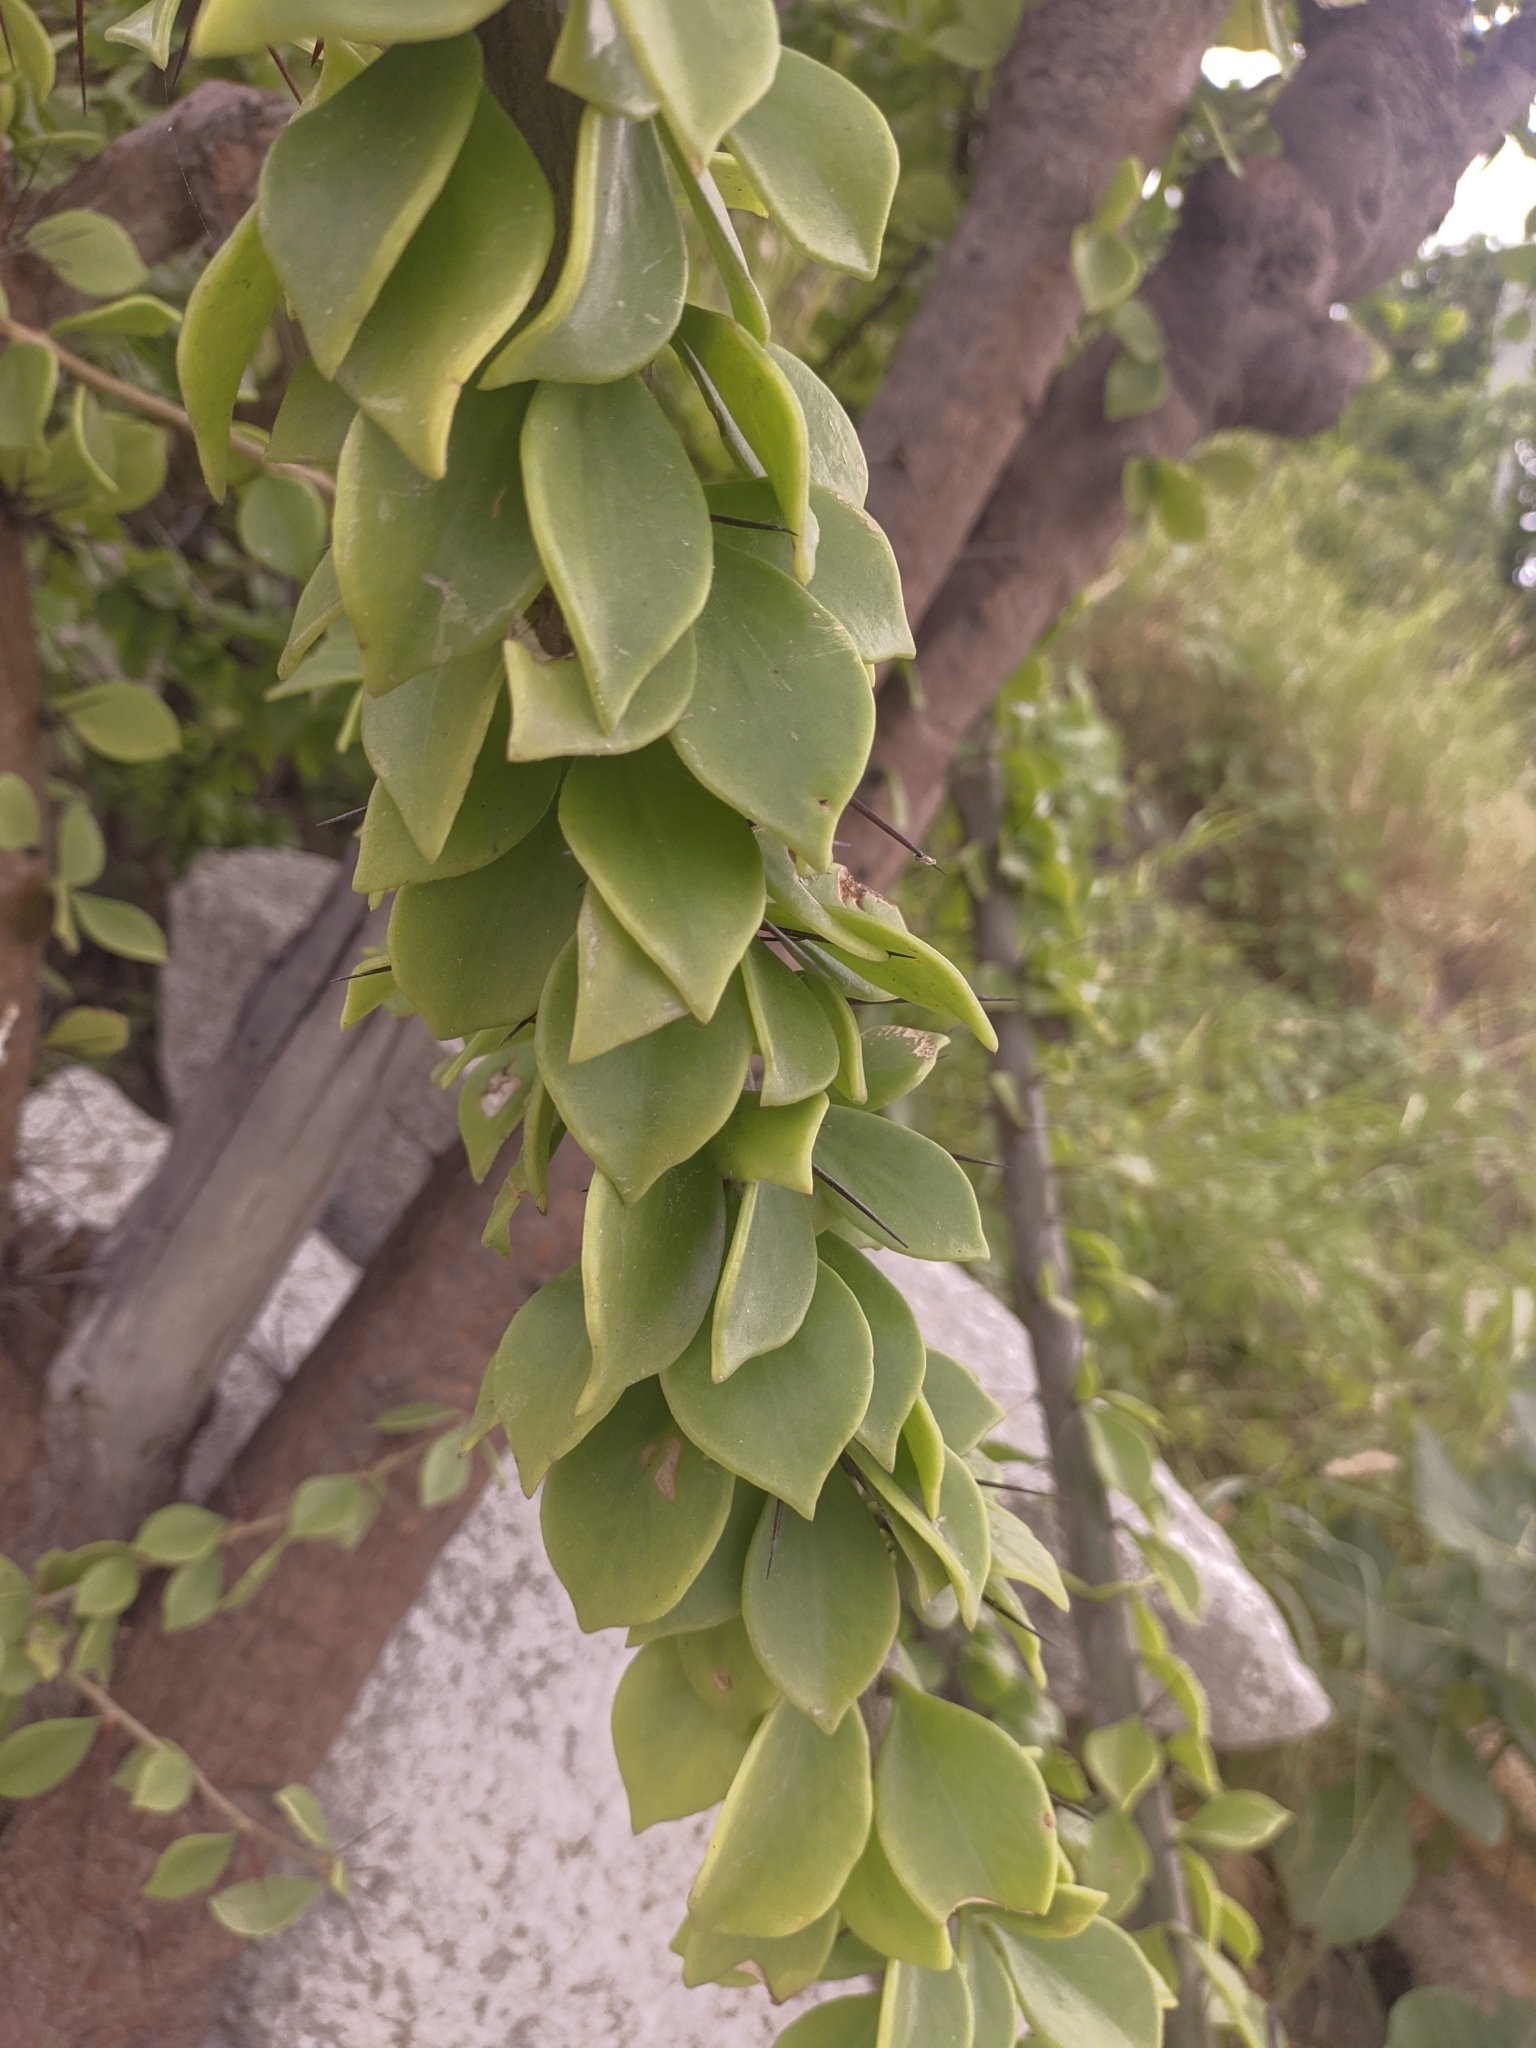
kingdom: Plantae
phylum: Tracheophyta
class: Magnoliopsida
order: Caryophyllales
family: Cactaceae
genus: Leuenbergeria
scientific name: Leuenbergeria guamacho
